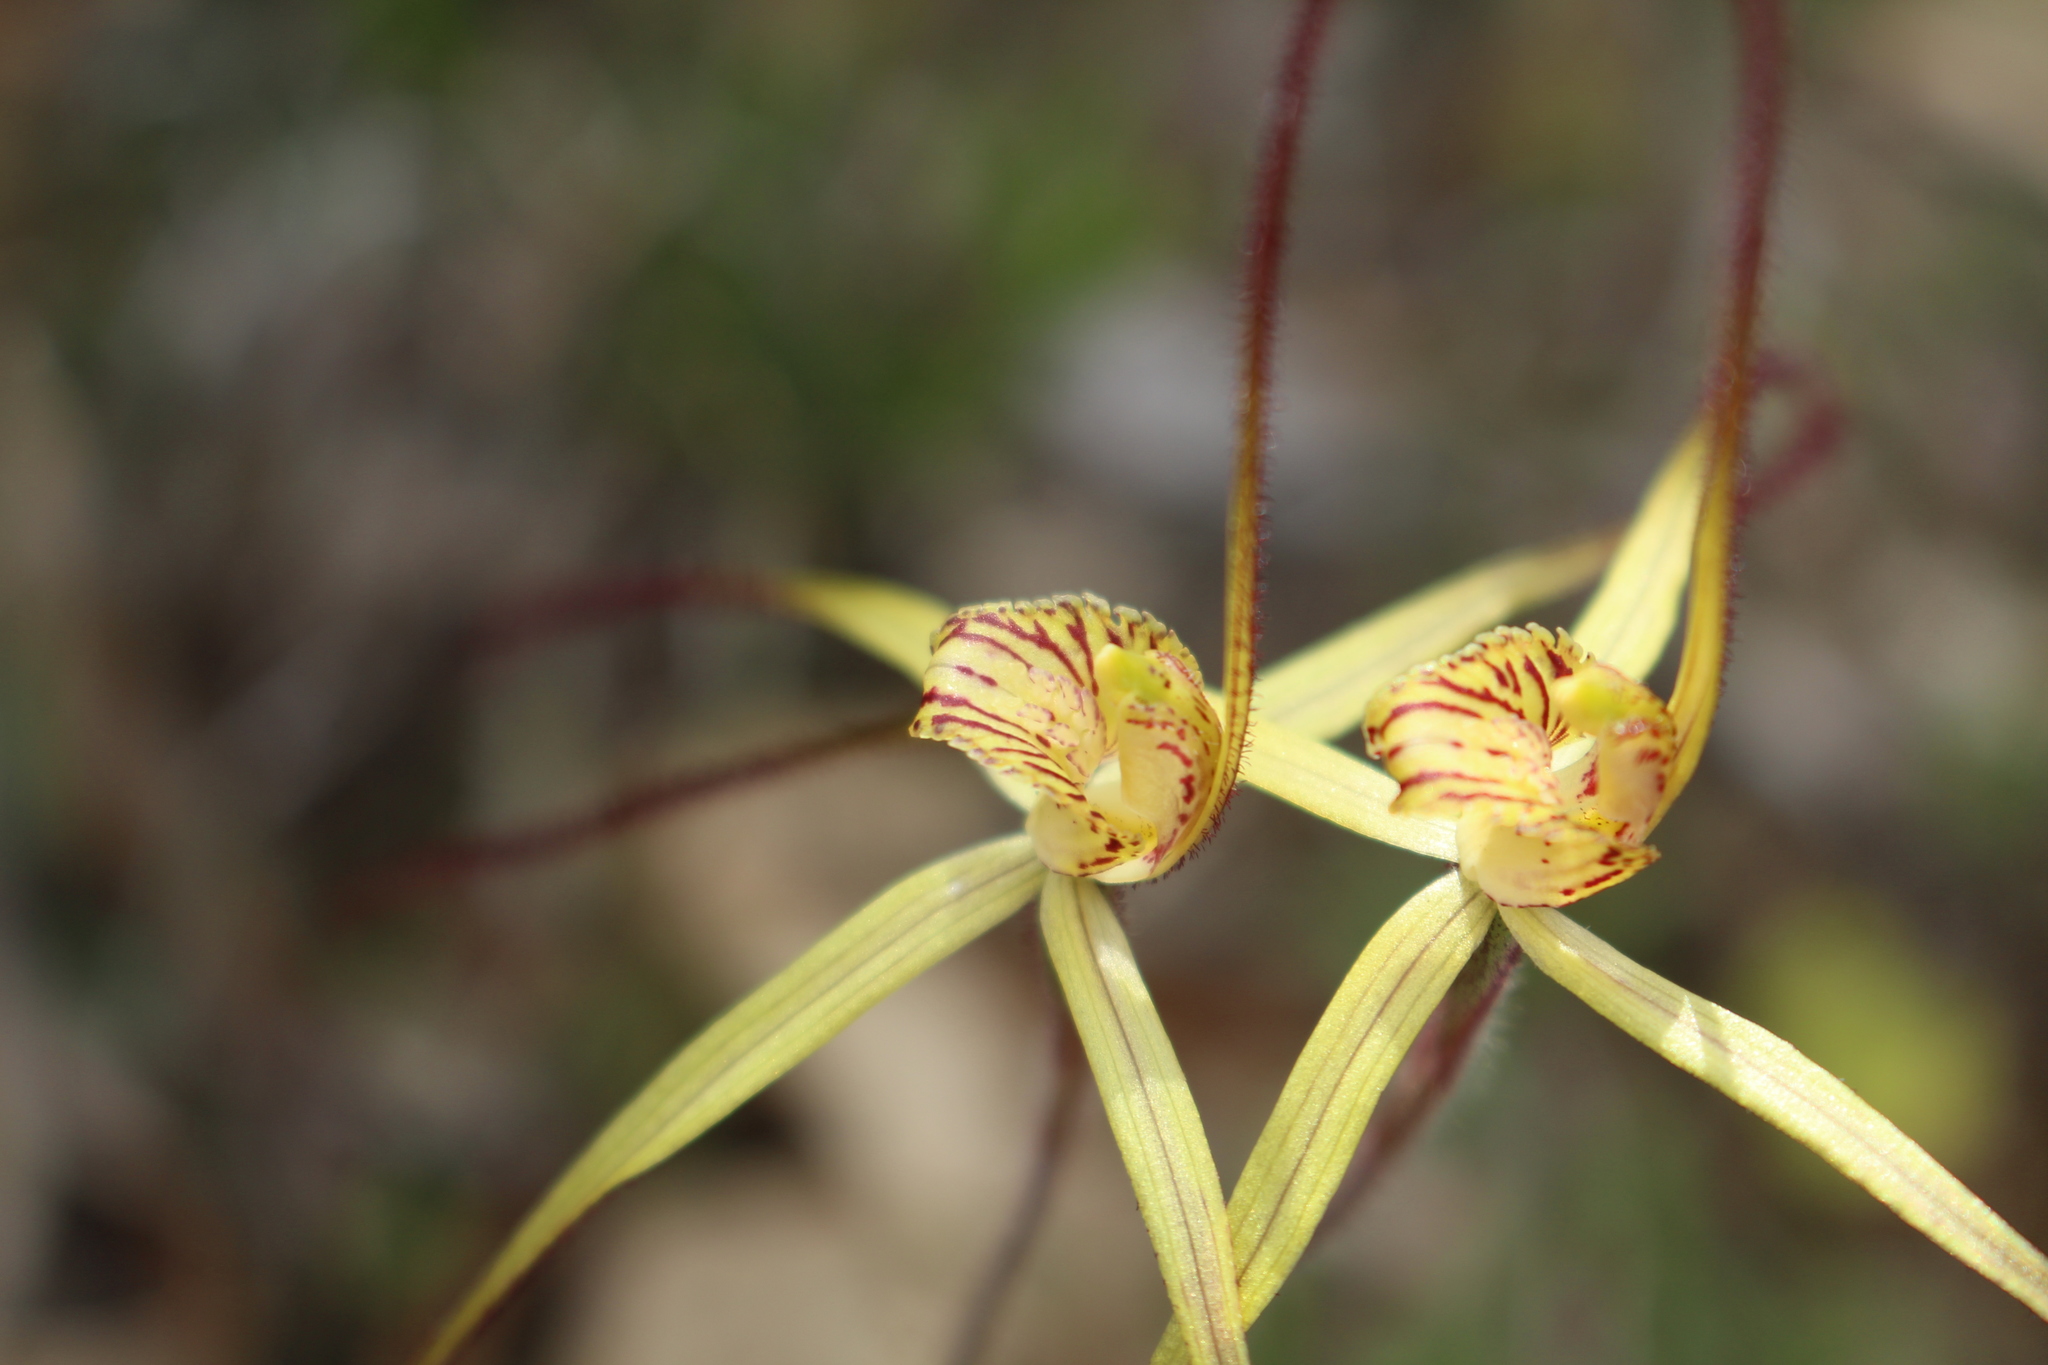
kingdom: Plantae
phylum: Tracheophyta
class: Liliopsida
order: Asparagales
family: Orchidaceae
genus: Caladenia
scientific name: Caladenia straminichila
